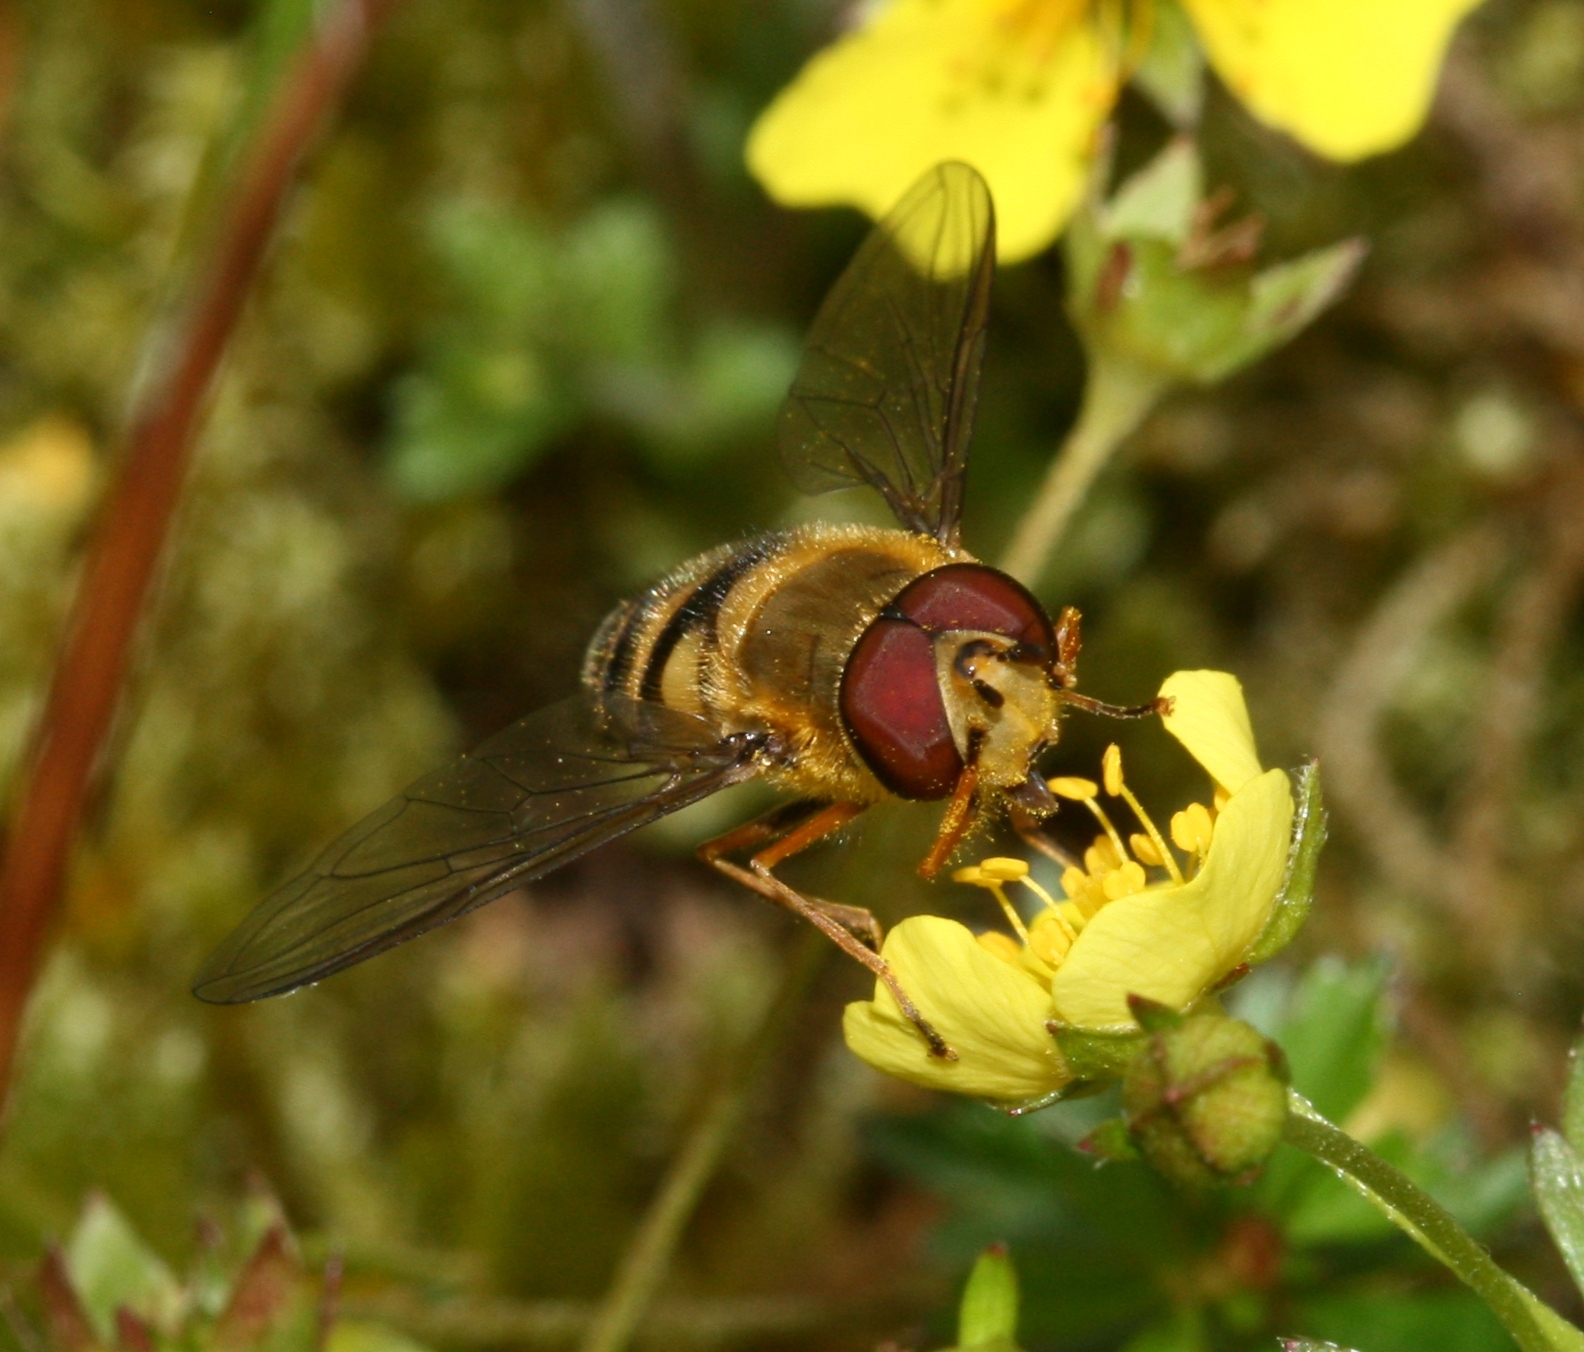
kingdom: Animalia
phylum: Arthropoda
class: Insecta
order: Diptera
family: Syrphidae
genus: Syrphus
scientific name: Syrphus
